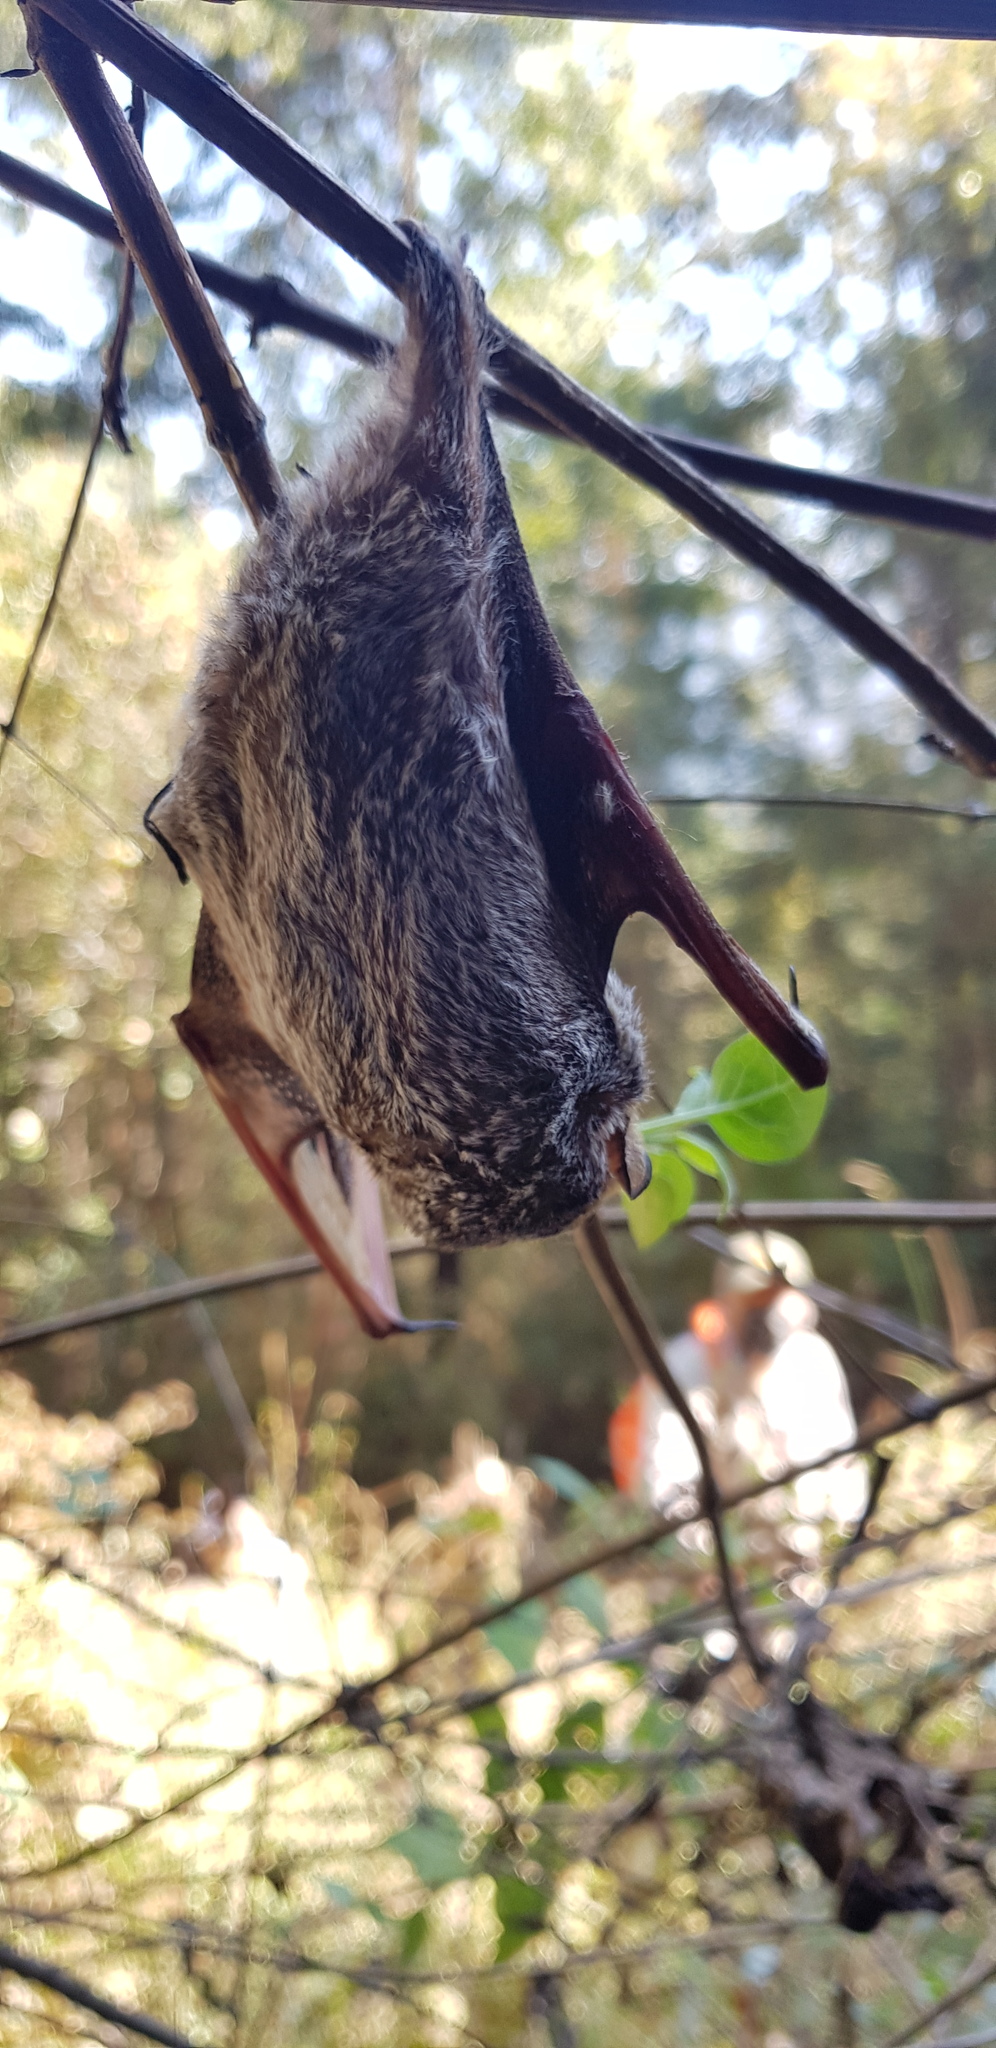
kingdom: Animalia
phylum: Chordata
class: Mammalia
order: Chiroptera
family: Vespertilionidae
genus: Aeorestes
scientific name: Aeorestes cinereus
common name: North american hoary bat
